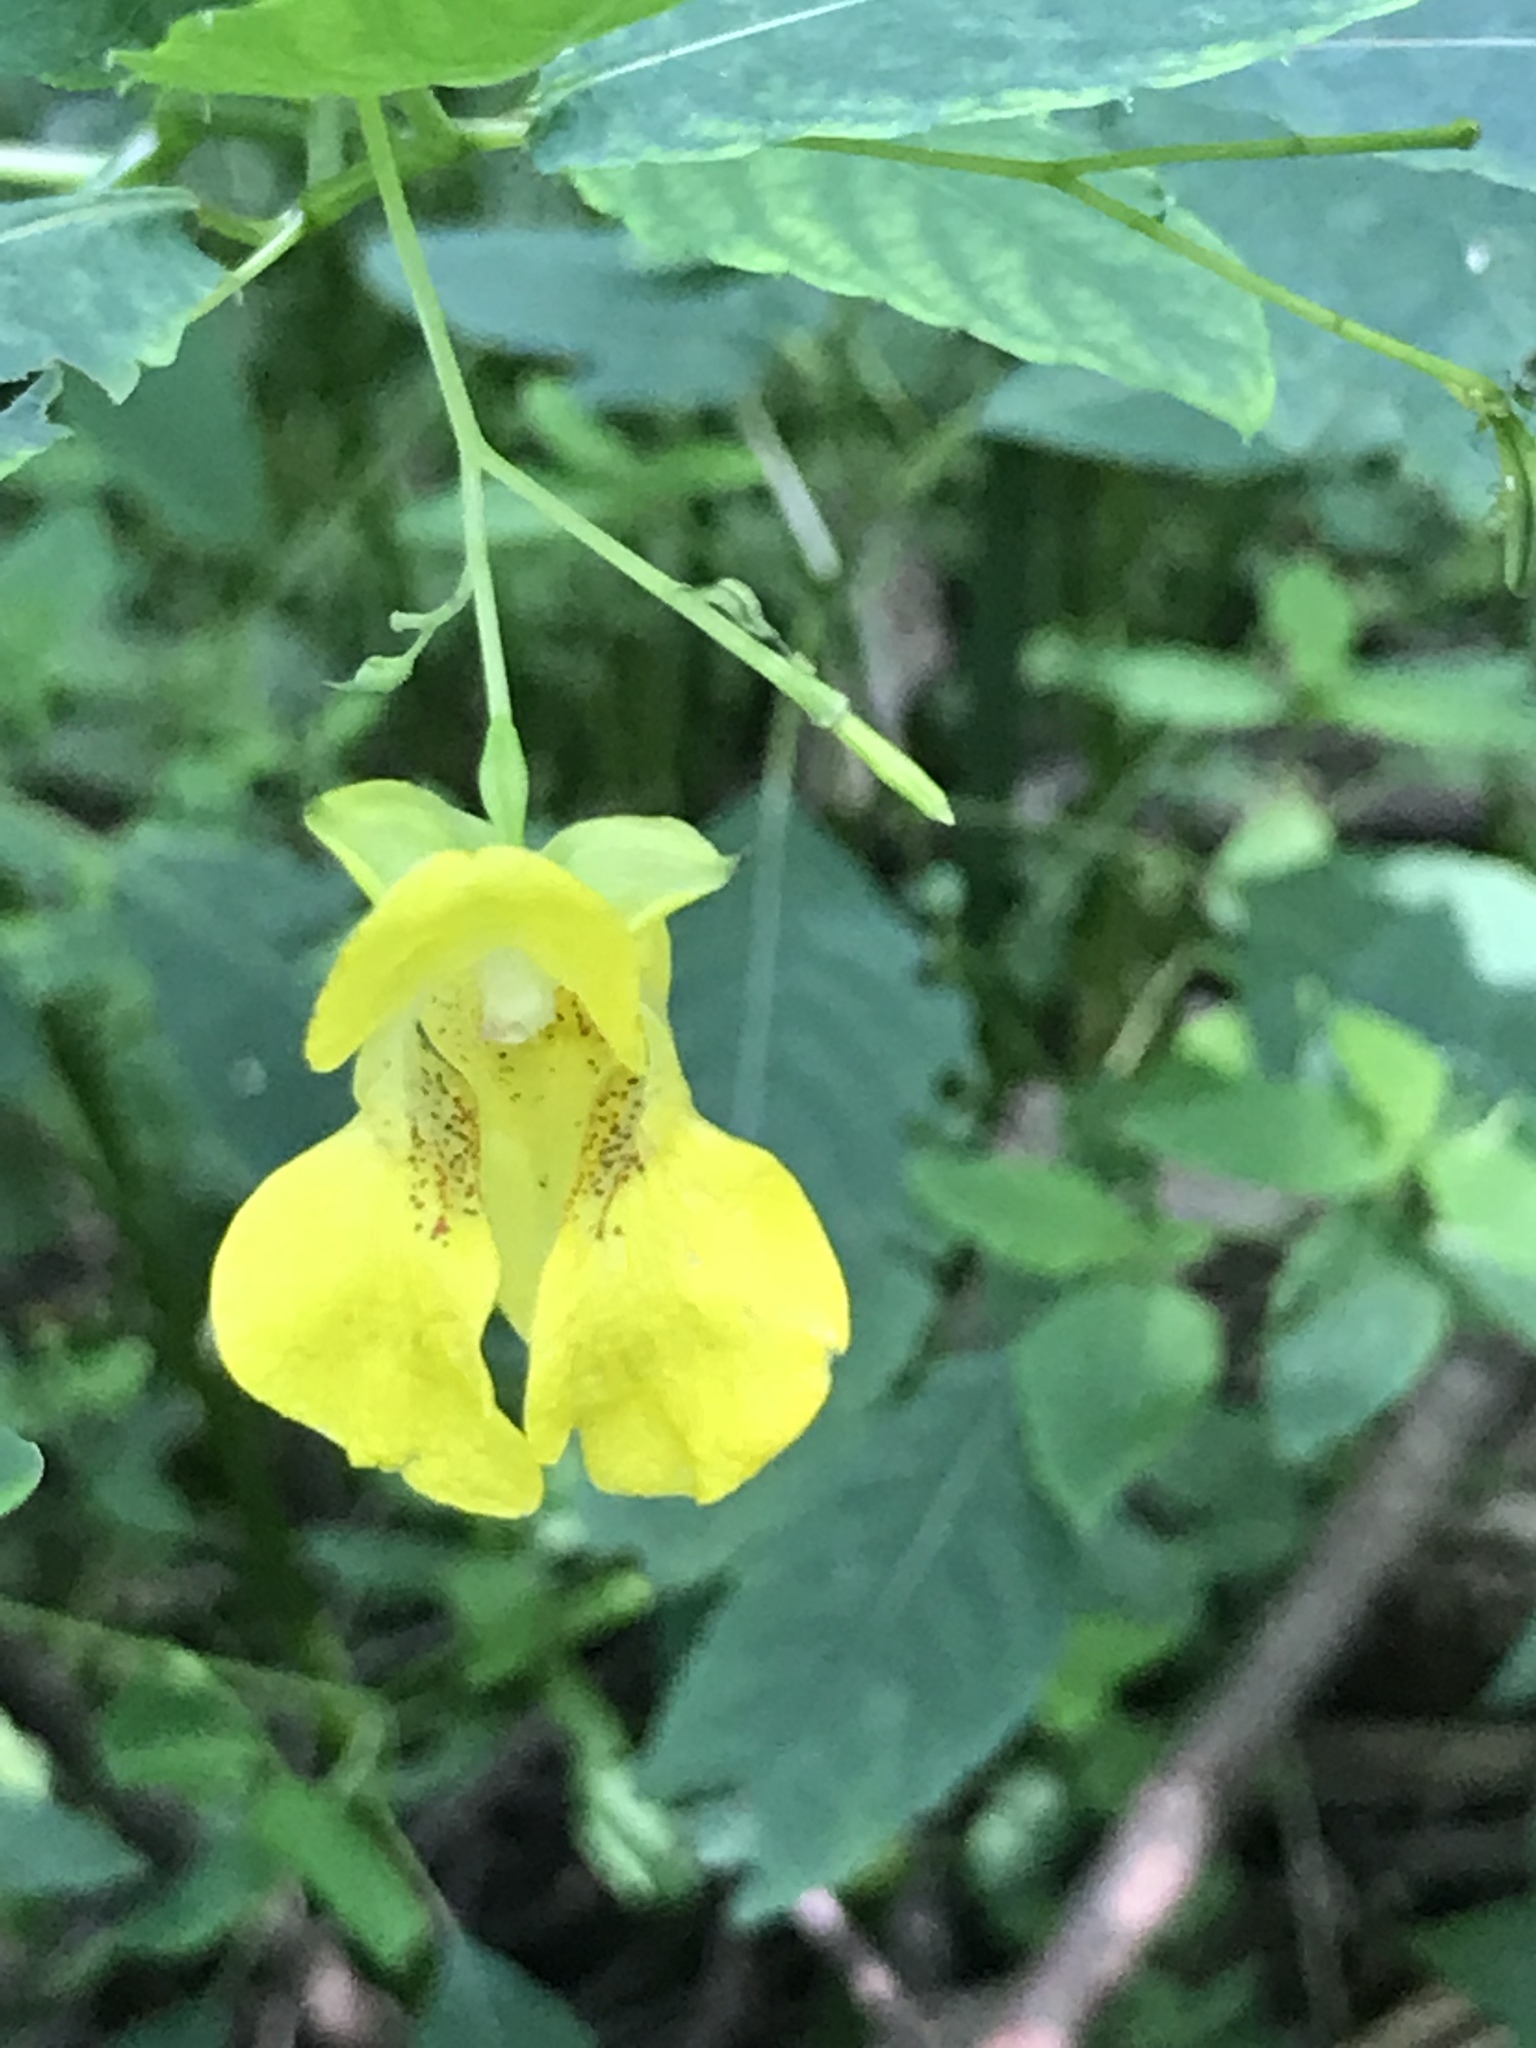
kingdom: Plantae
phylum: Tracheophyta
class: Magnoliopsida
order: Ericales
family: Balsaminaceae
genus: Impatiens
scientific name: Impatiens pallida
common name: Pale snapweed
